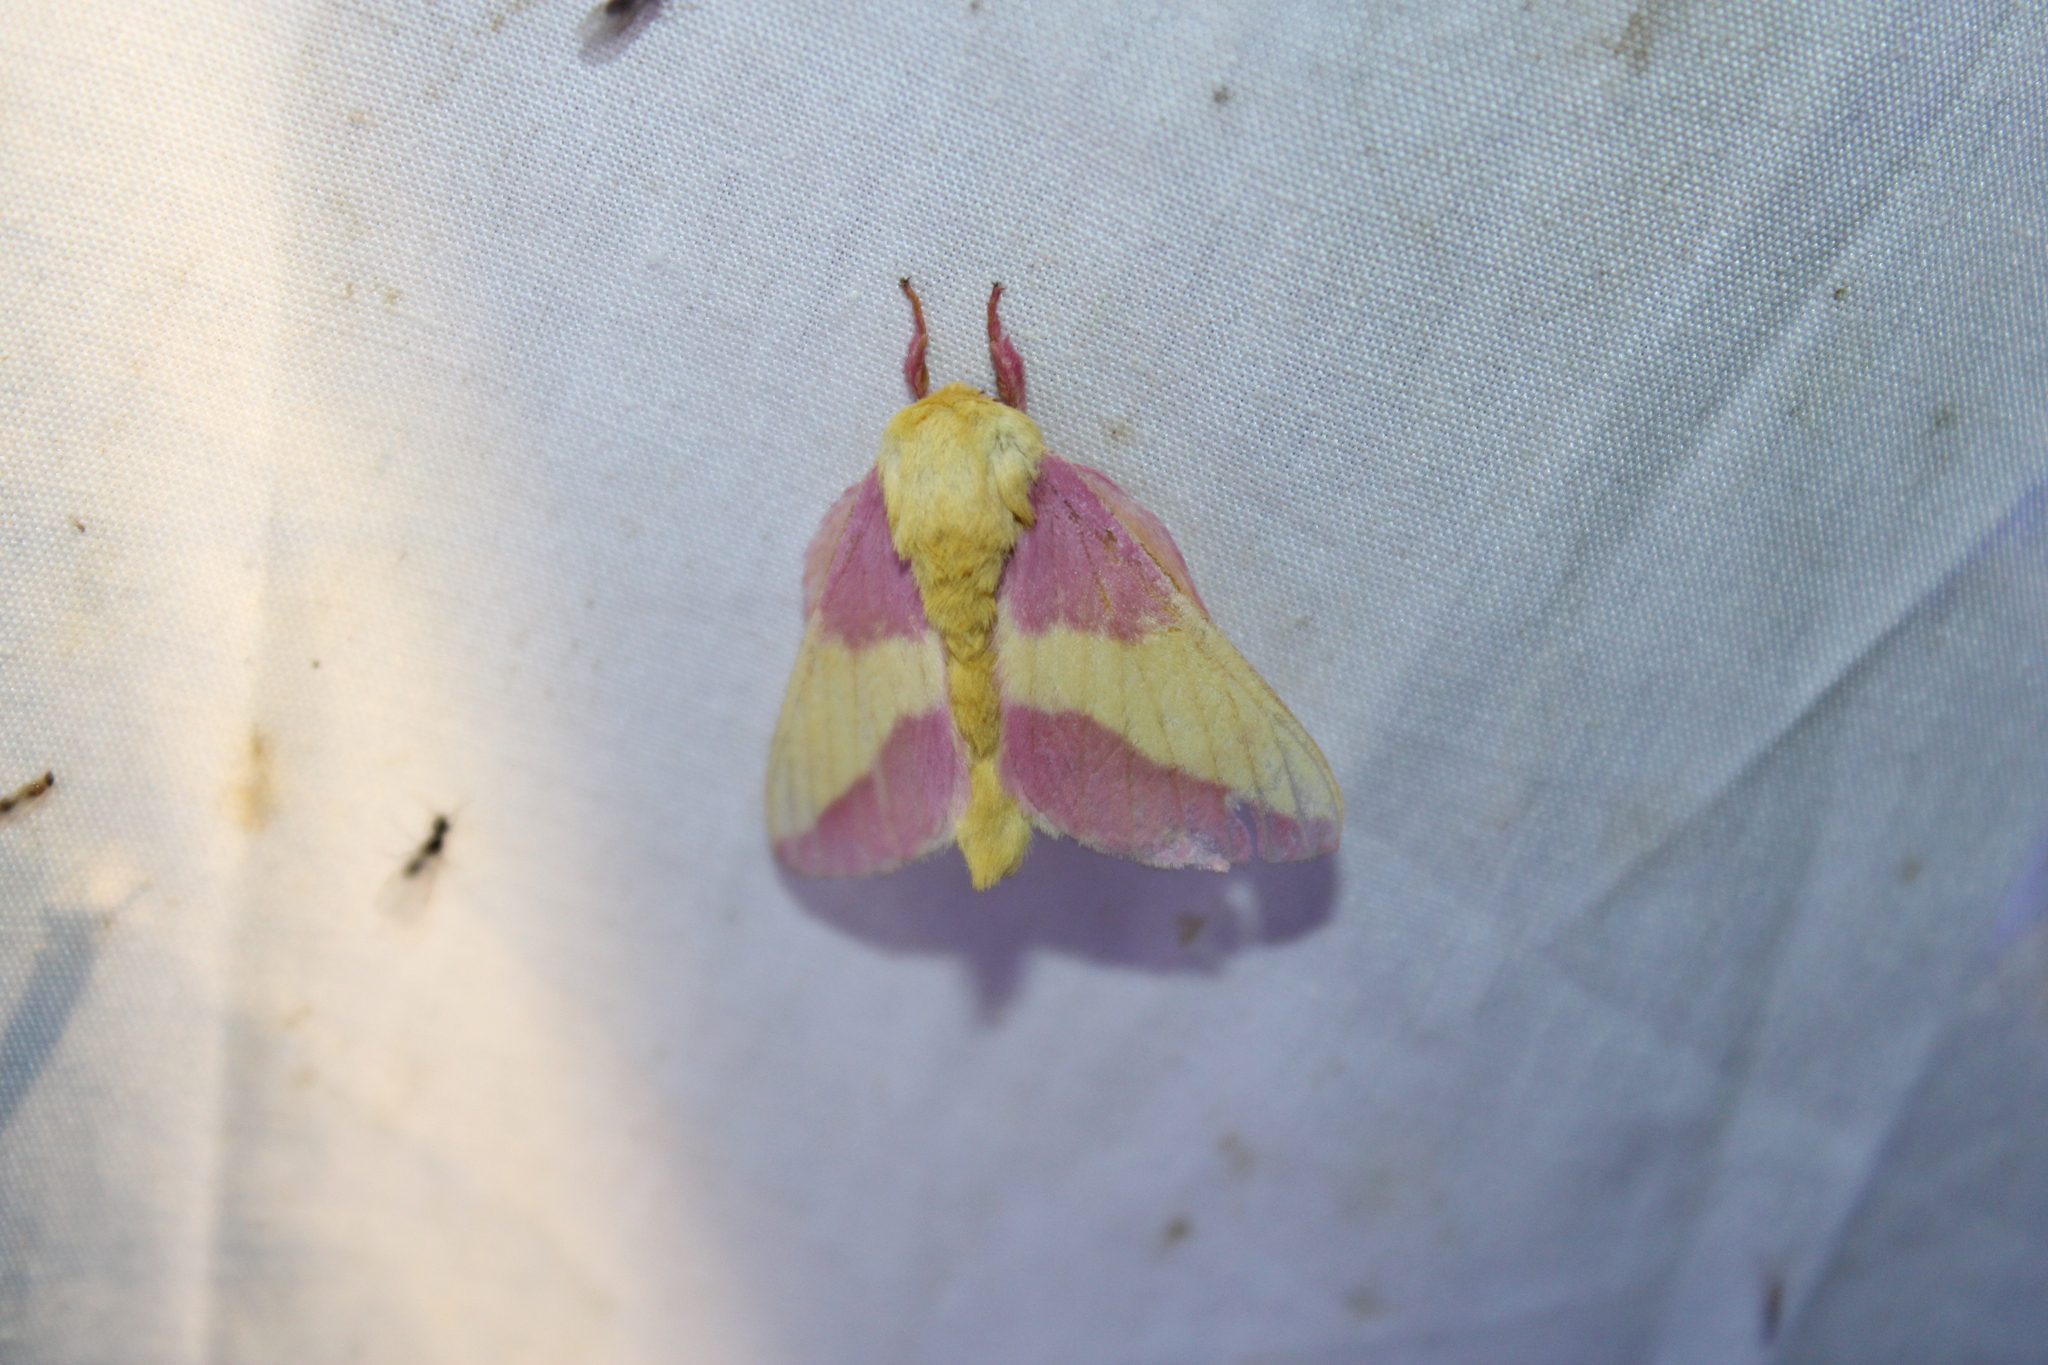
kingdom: Animalia
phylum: Arthropoda
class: Insecta
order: Lepidoptera
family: Saturniidae
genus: Dryocampa
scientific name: Dryocampa rubicunda
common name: Rosy maple moth
